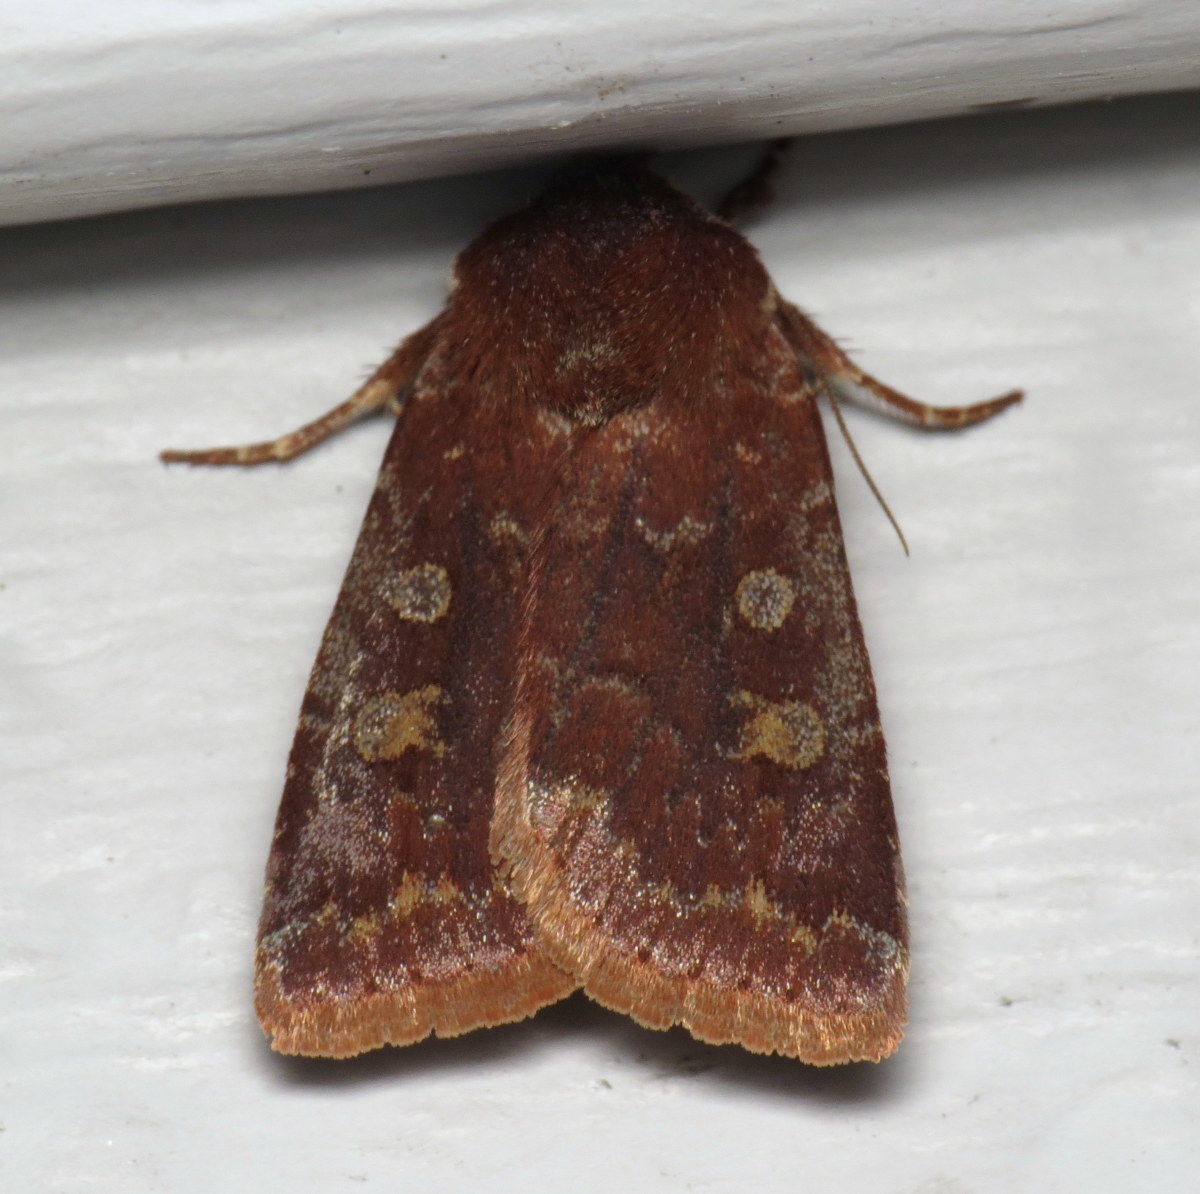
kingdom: Animalia
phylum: Arthropoda
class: Insecta
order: Lepidoptera
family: Noctuidae
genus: Cerastis
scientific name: Cerastis tenebrifera
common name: Reddish speckled dart
